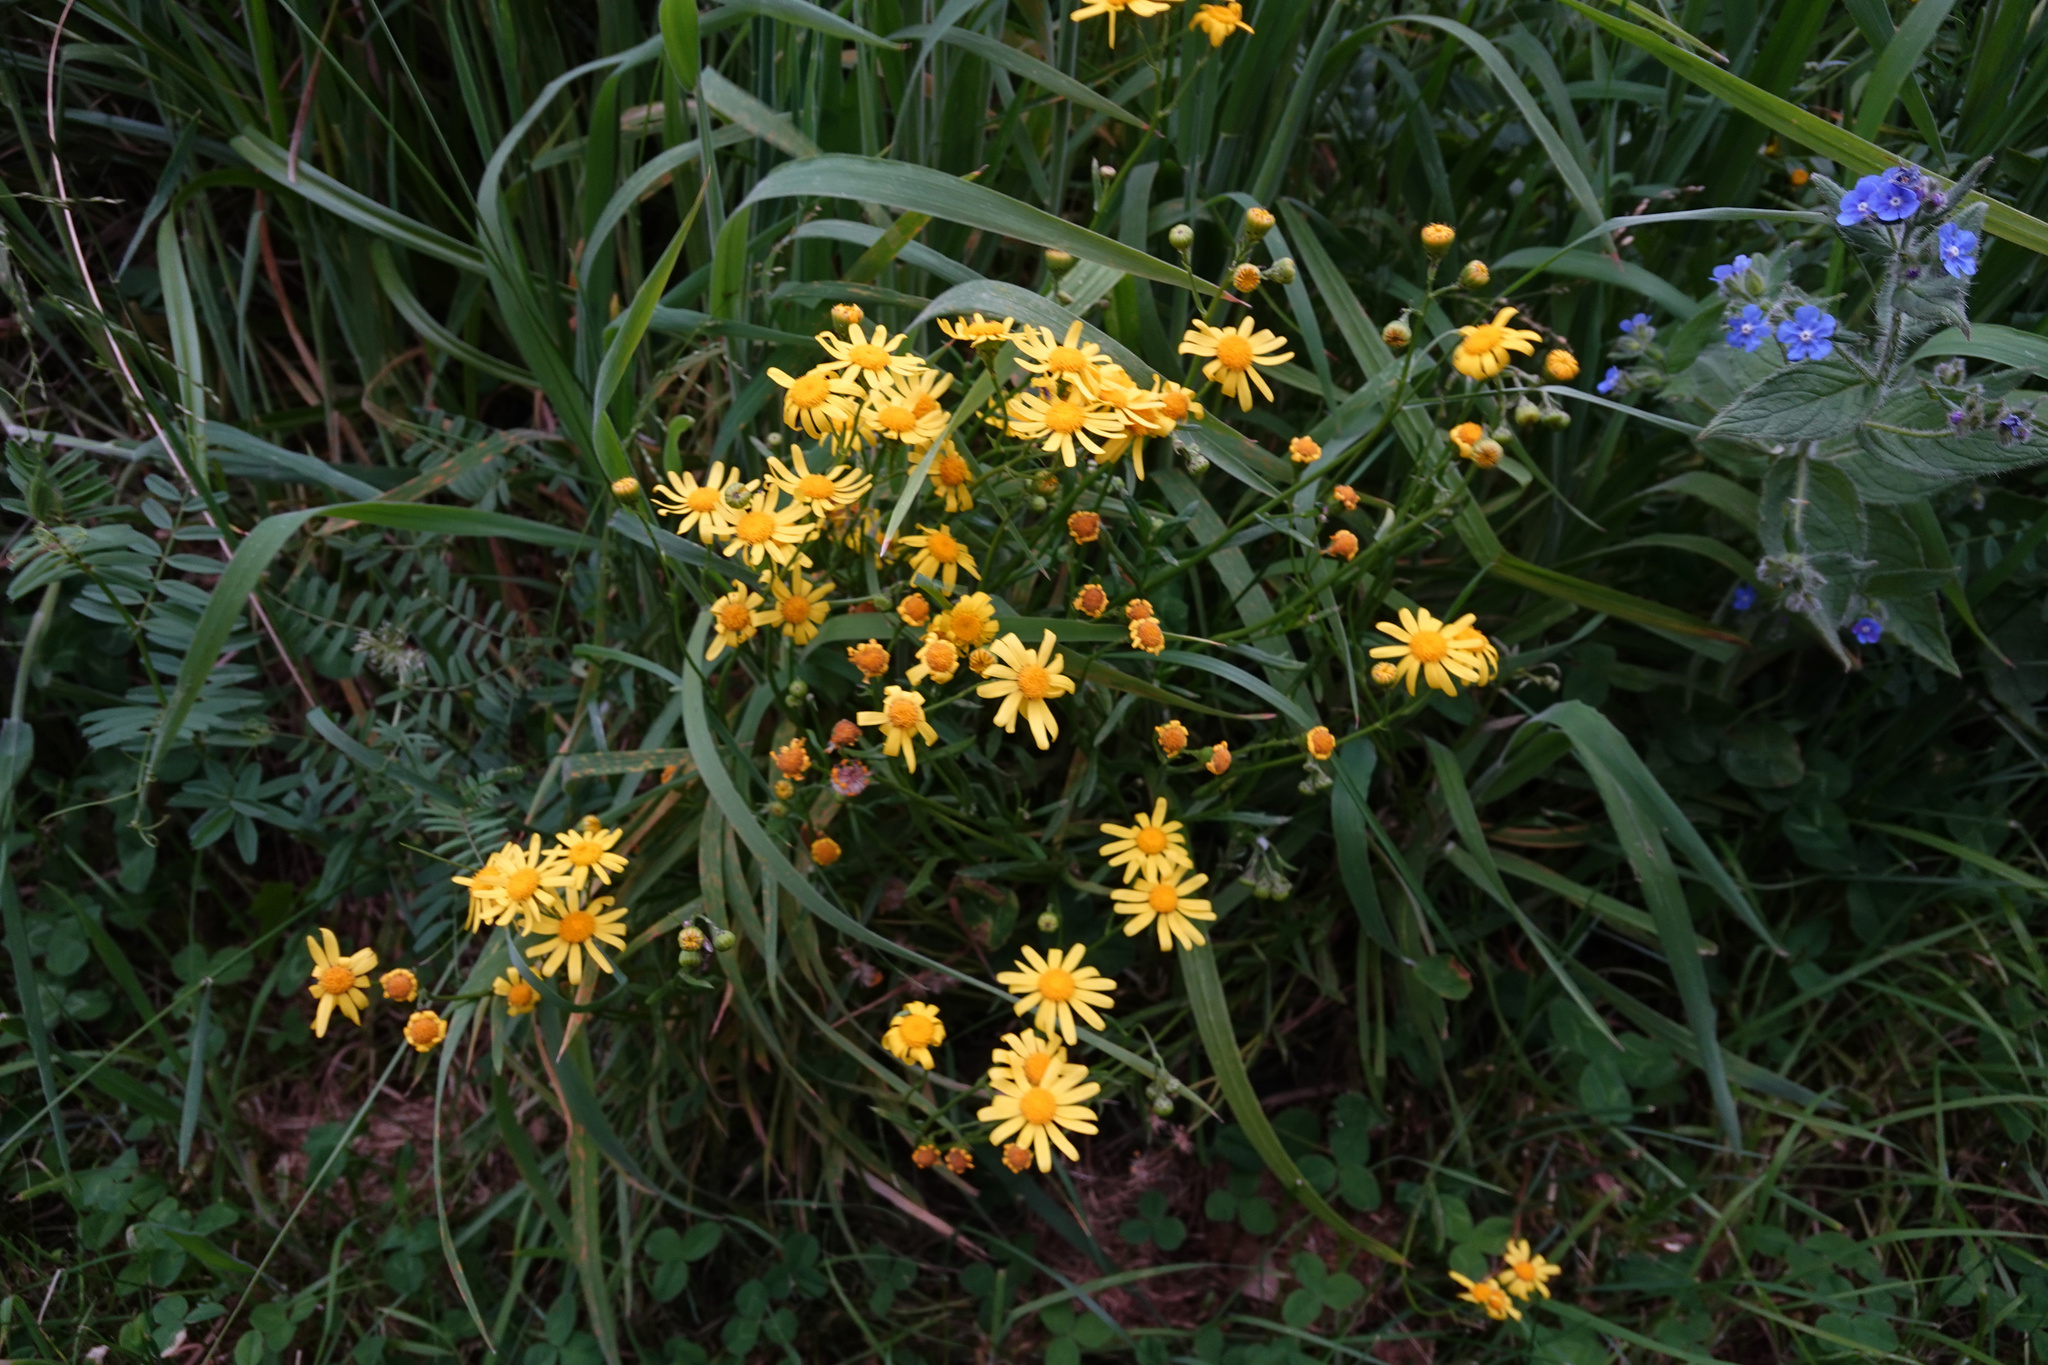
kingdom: Plantae
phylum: Tracheophyta
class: Magnoliopsida
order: Asterales
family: Asteraceae
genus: Senecio
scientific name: Senecio skirrhodon
